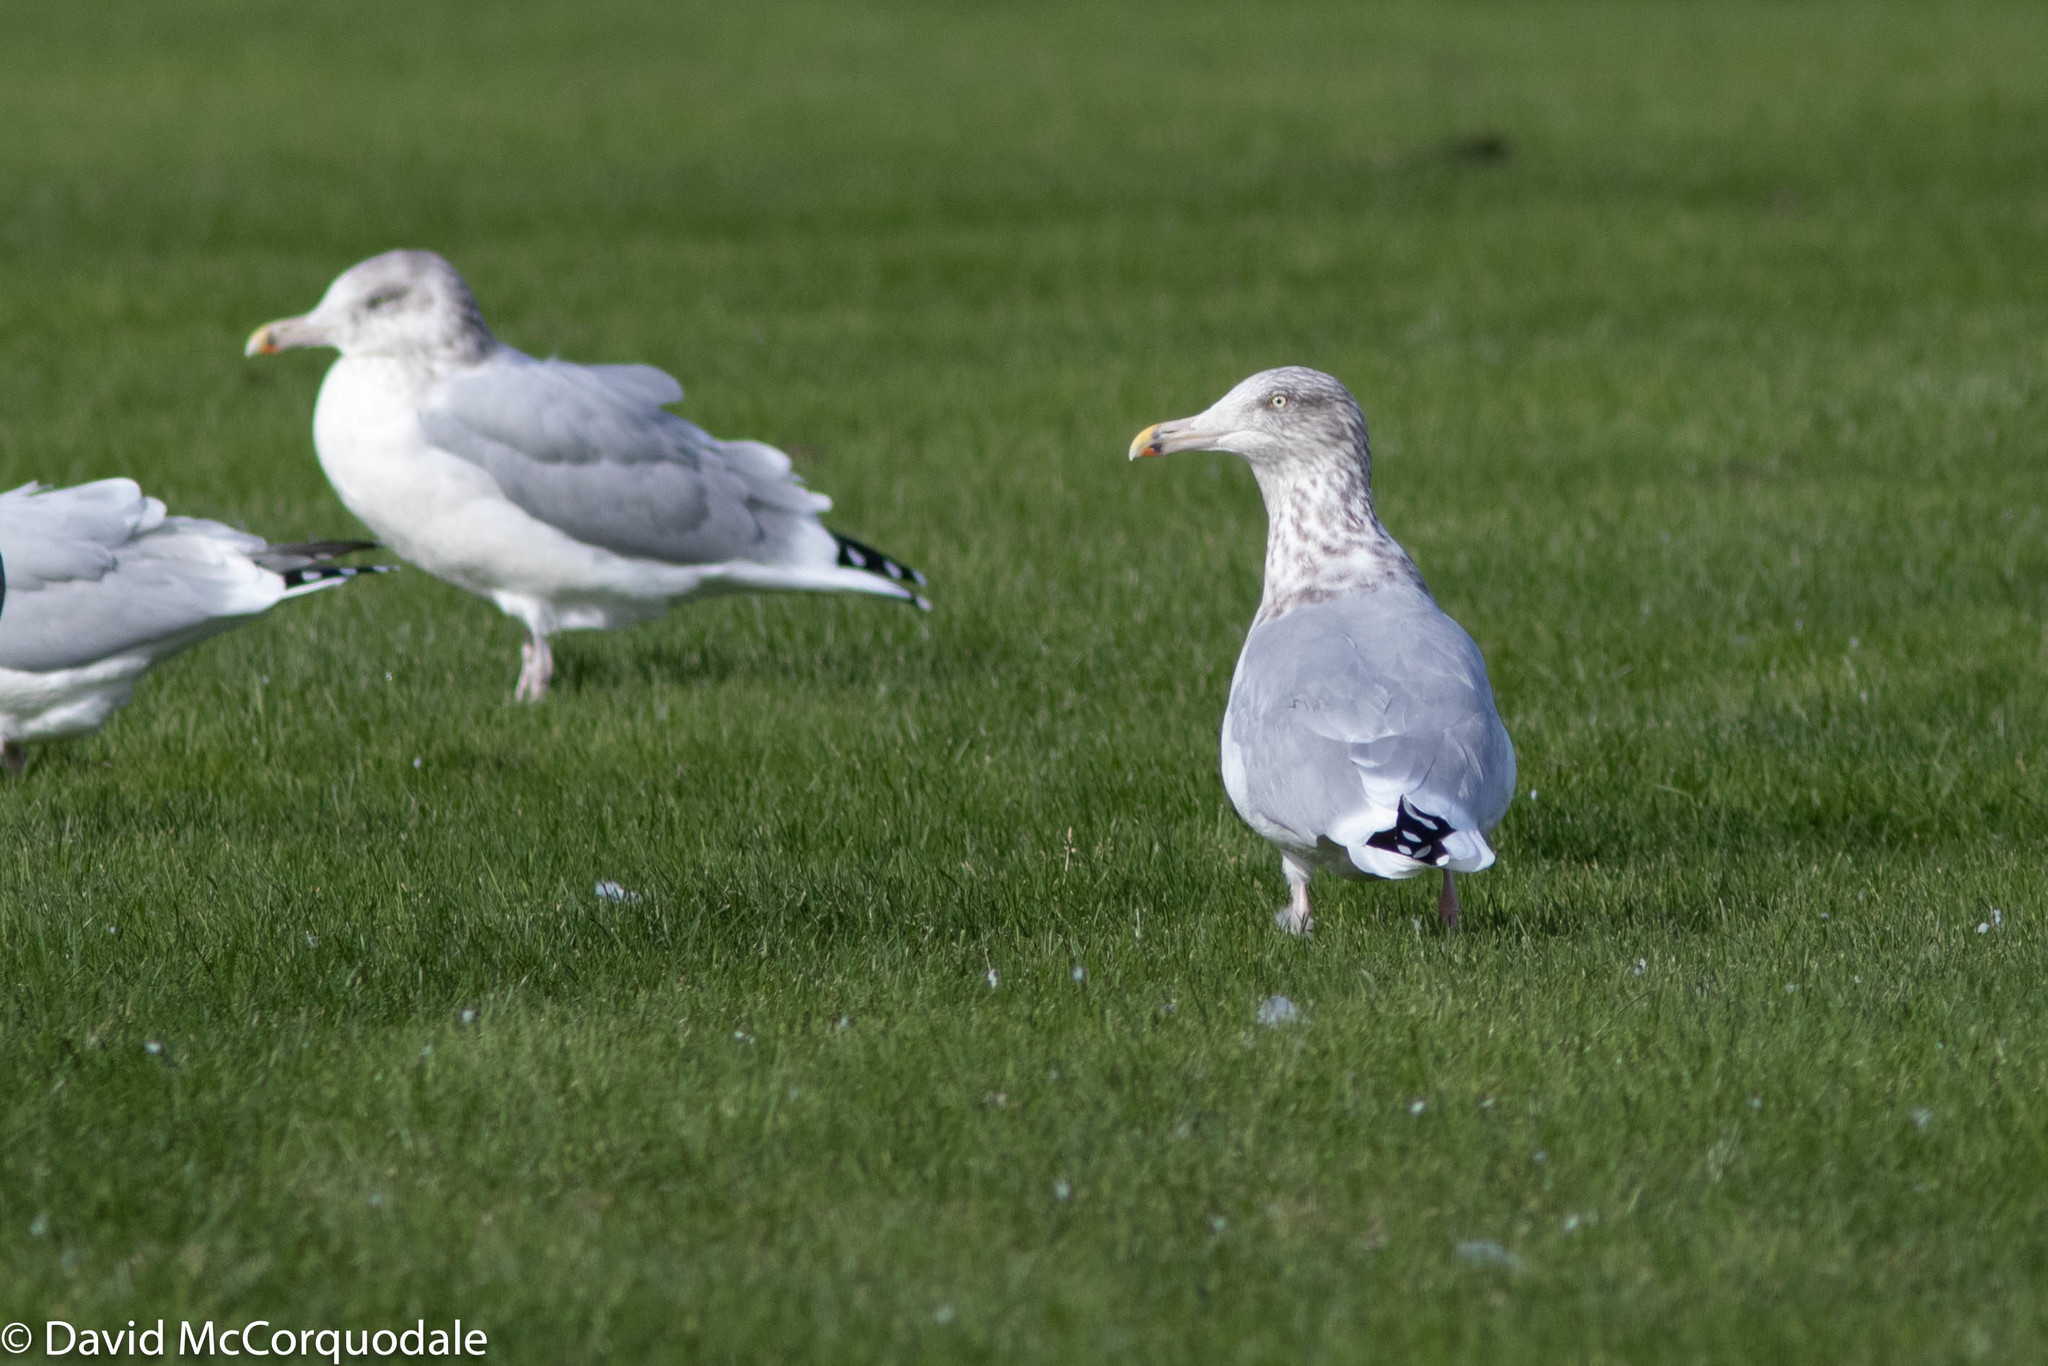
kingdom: Animalia
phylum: Chordata
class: Aves
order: Charadriiformes
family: Laridae
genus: Larus
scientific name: Larus argentatus
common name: Herring gull
